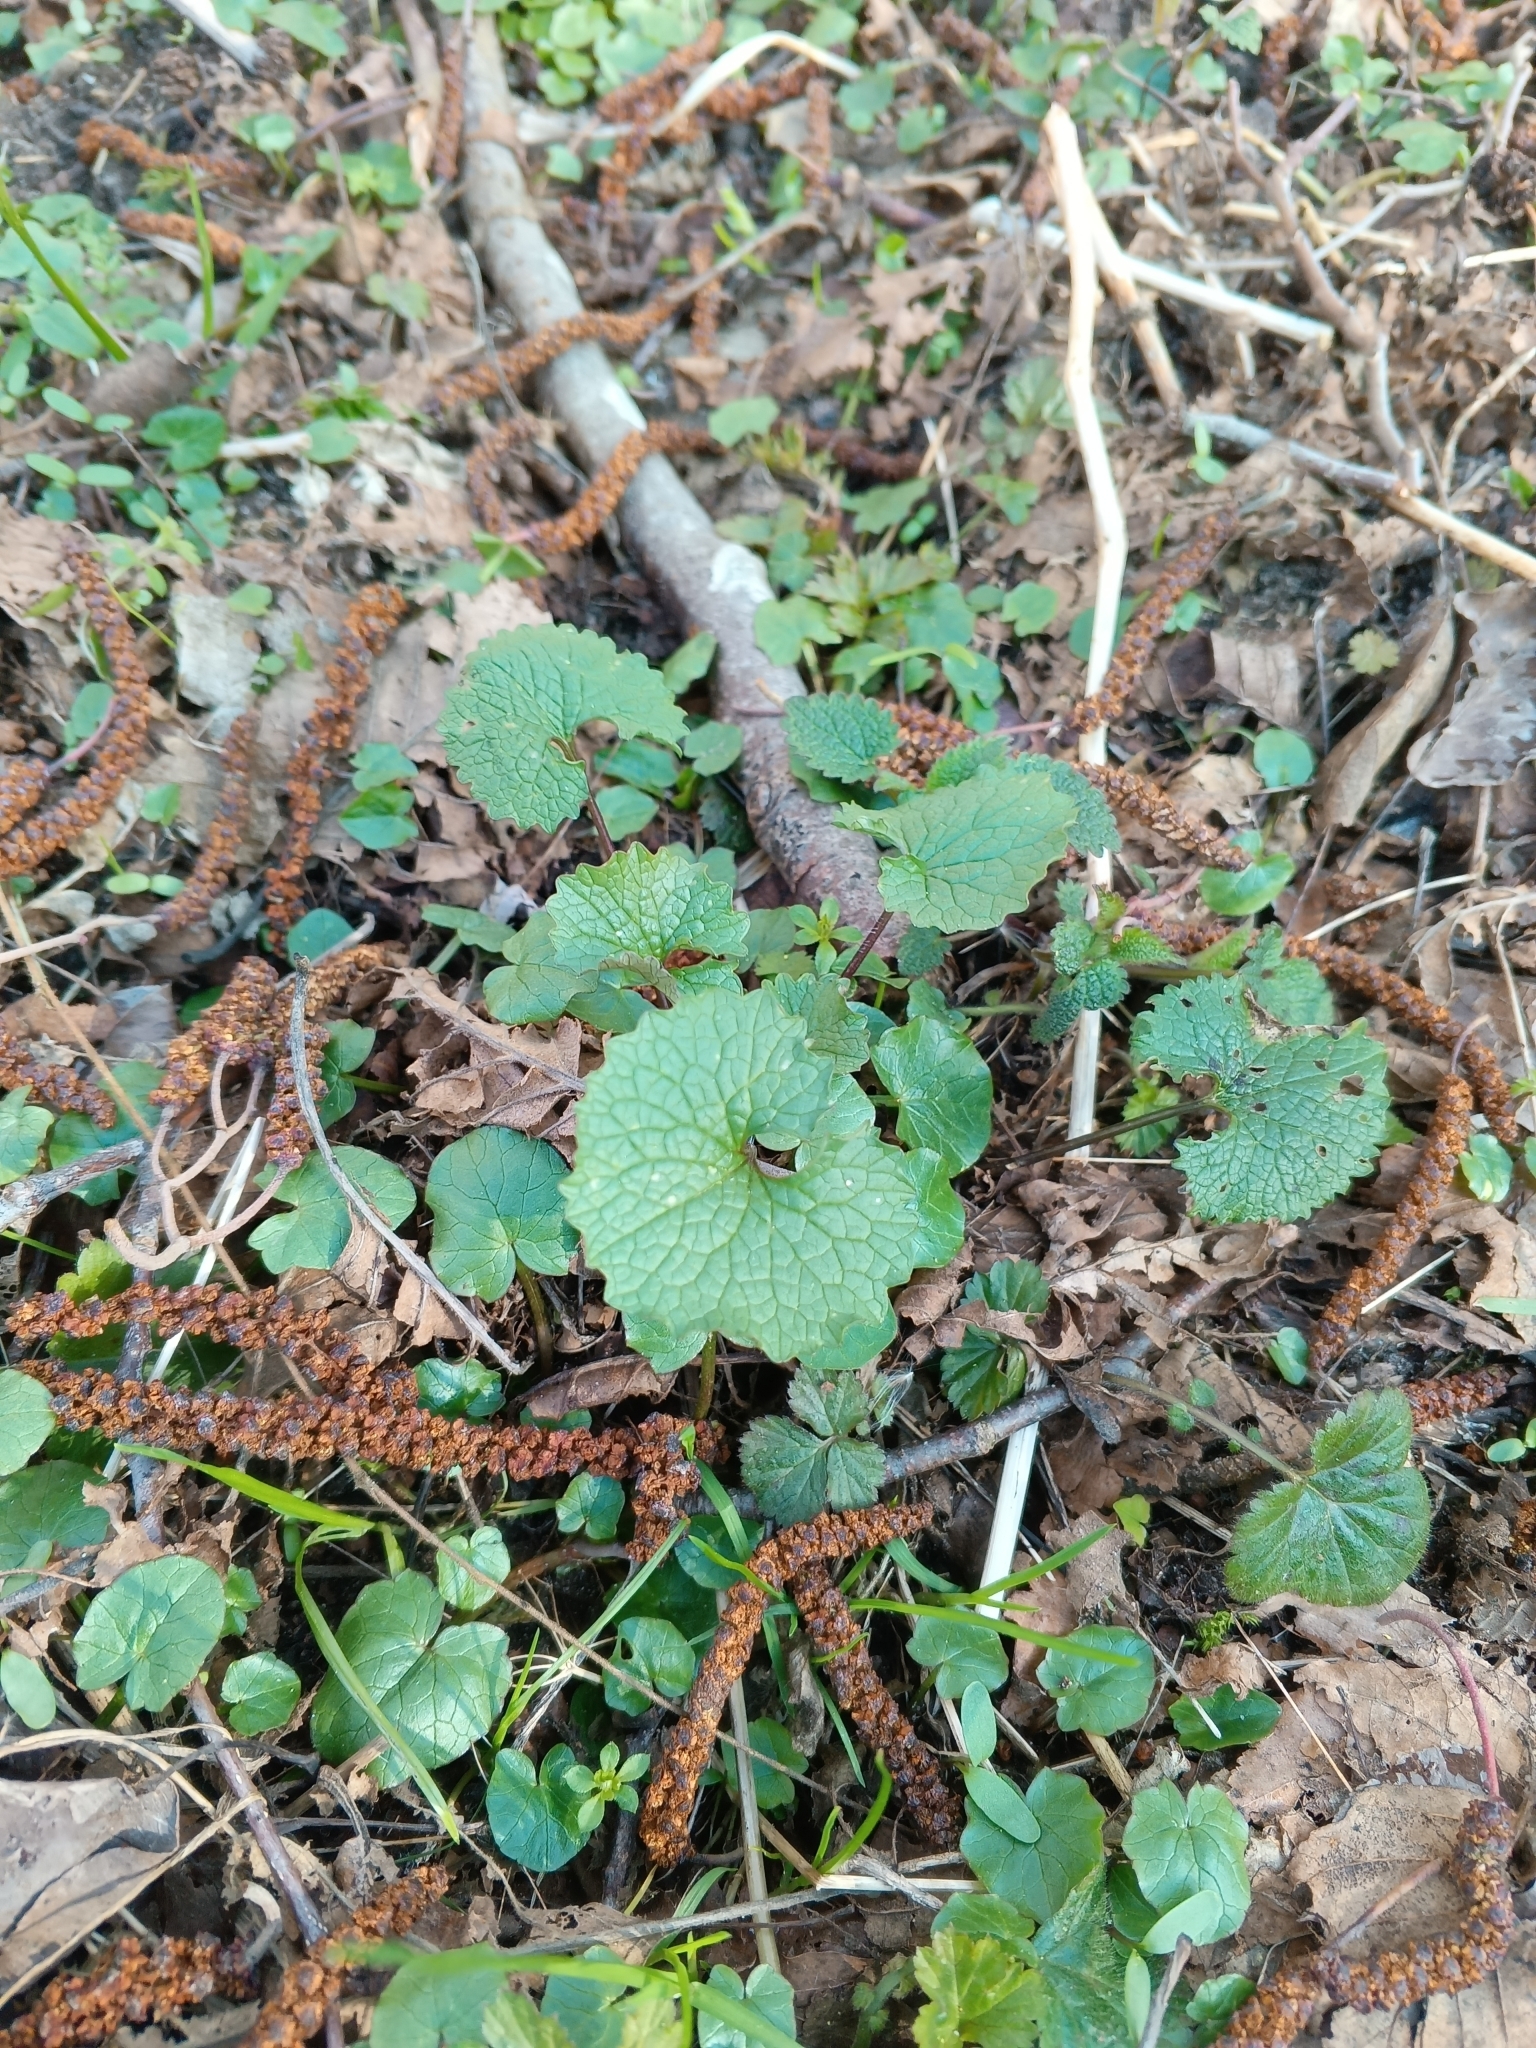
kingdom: Plantae
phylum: Tracheophyta
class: Magnoliopsida
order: Brassicales
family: Brassicaceae
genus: Alliaria
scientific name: Alliaria petiolata
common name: Garlic mustard
